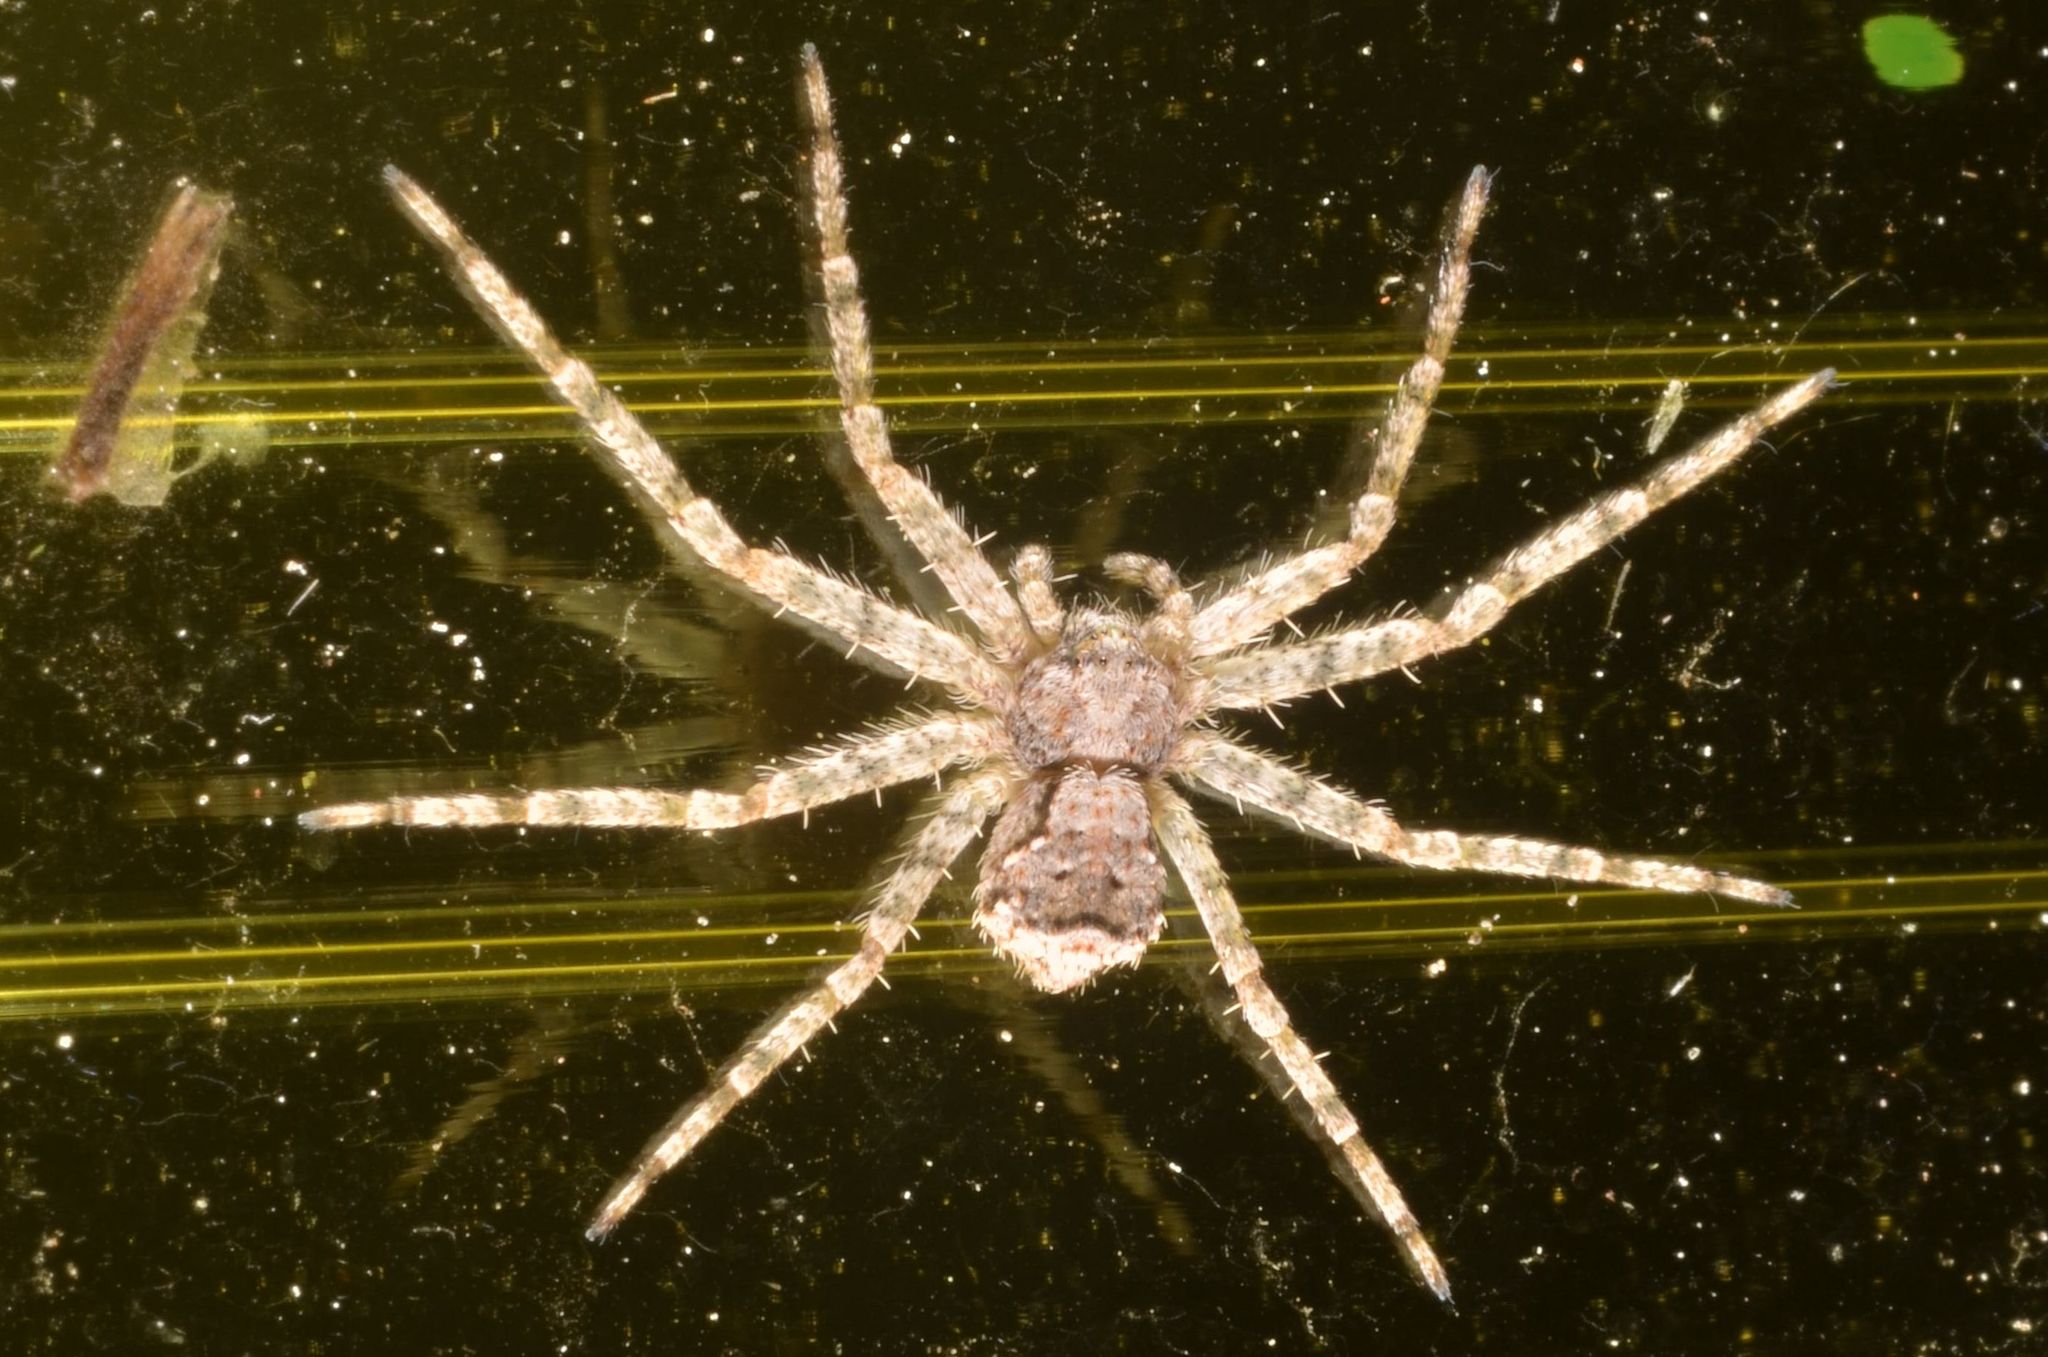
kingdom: Animalia
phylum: Arthropoda
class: Arachnida
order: Araneae
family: Philodromidae
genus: Philodromus
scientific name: Philodromus poecilus
